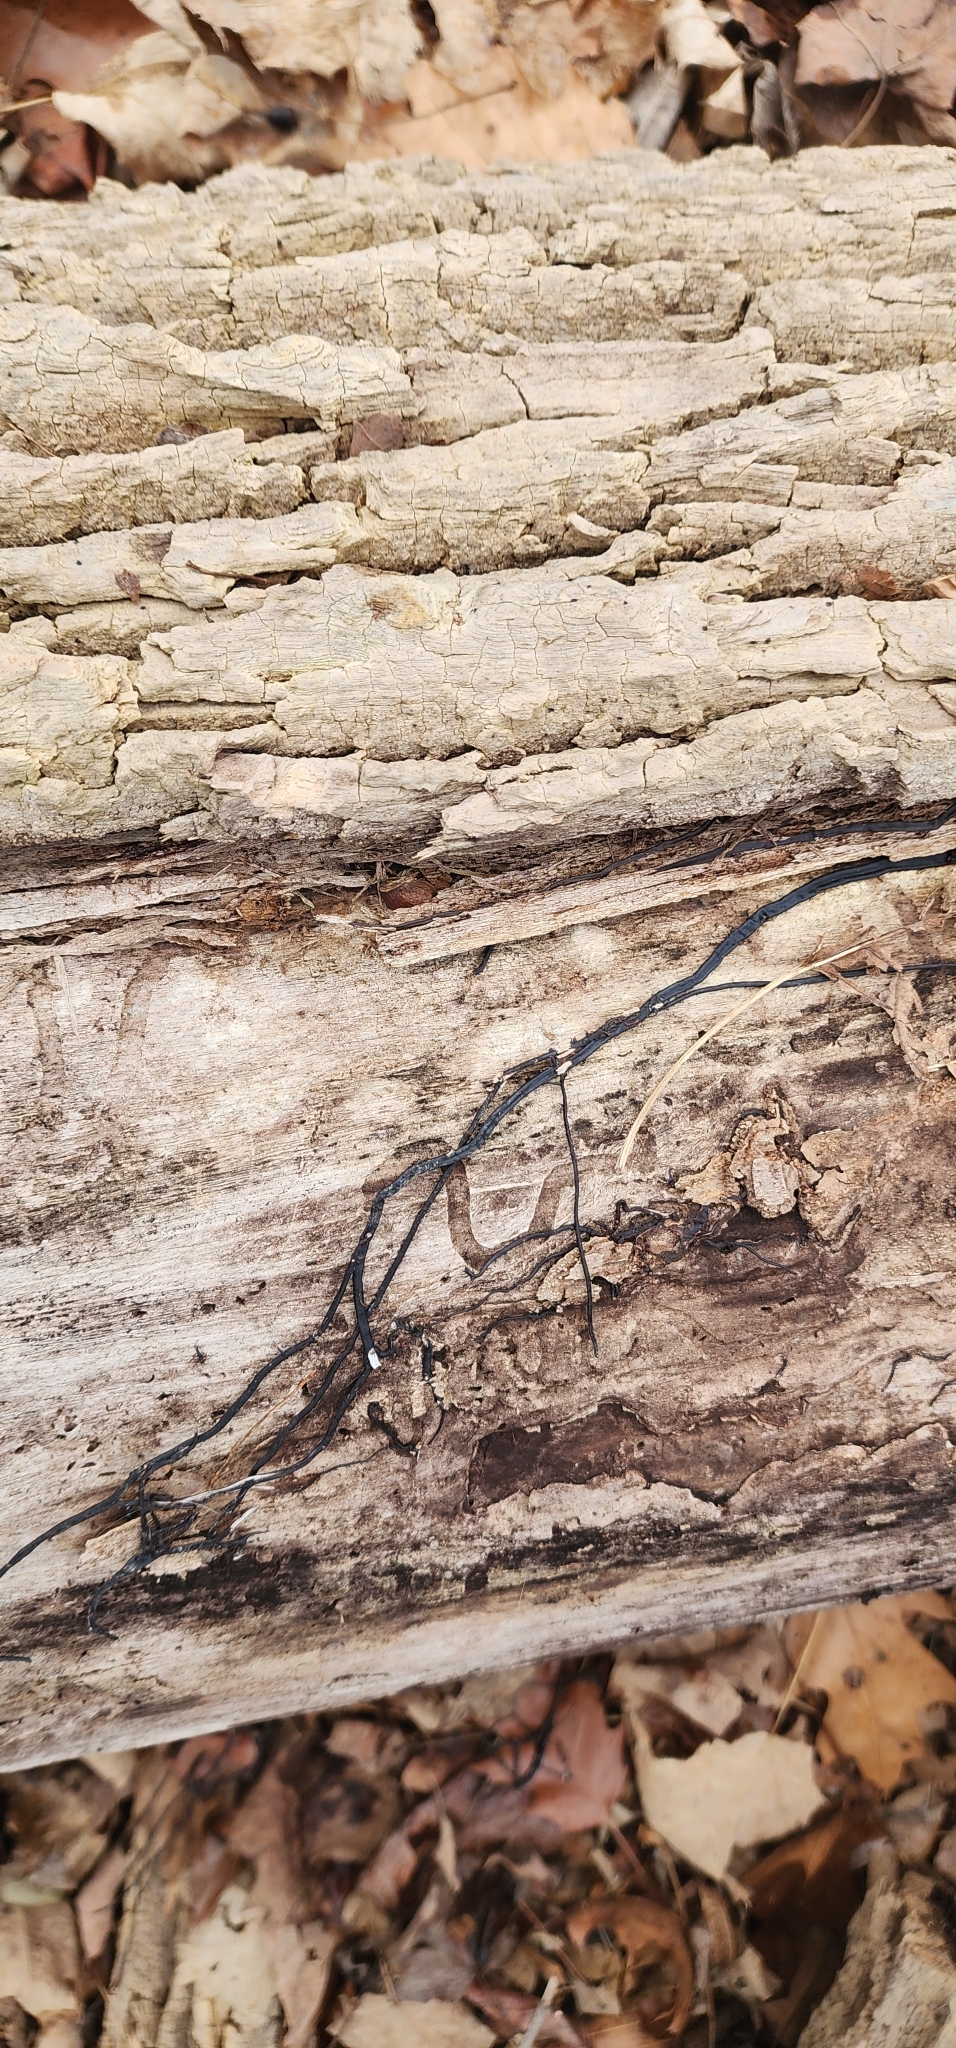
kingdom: Fungi
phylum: Basidiomycota
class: Agaricomycetes
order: Agaricales
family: Physalacriaceae
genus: Armillaria
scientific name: Armillaria
